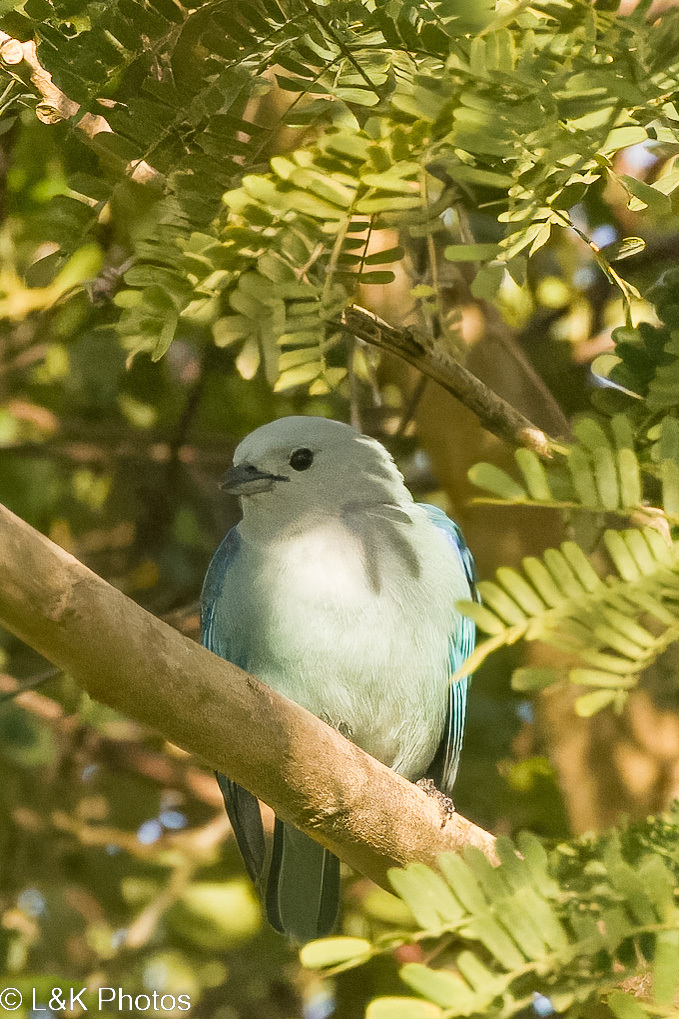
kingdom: Animalia
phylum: Chordata
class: Aves
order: Passeriformes
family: Thraupidae
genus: Thraupis
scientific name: Thraupis episcopus
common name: Blue-grey tanager
